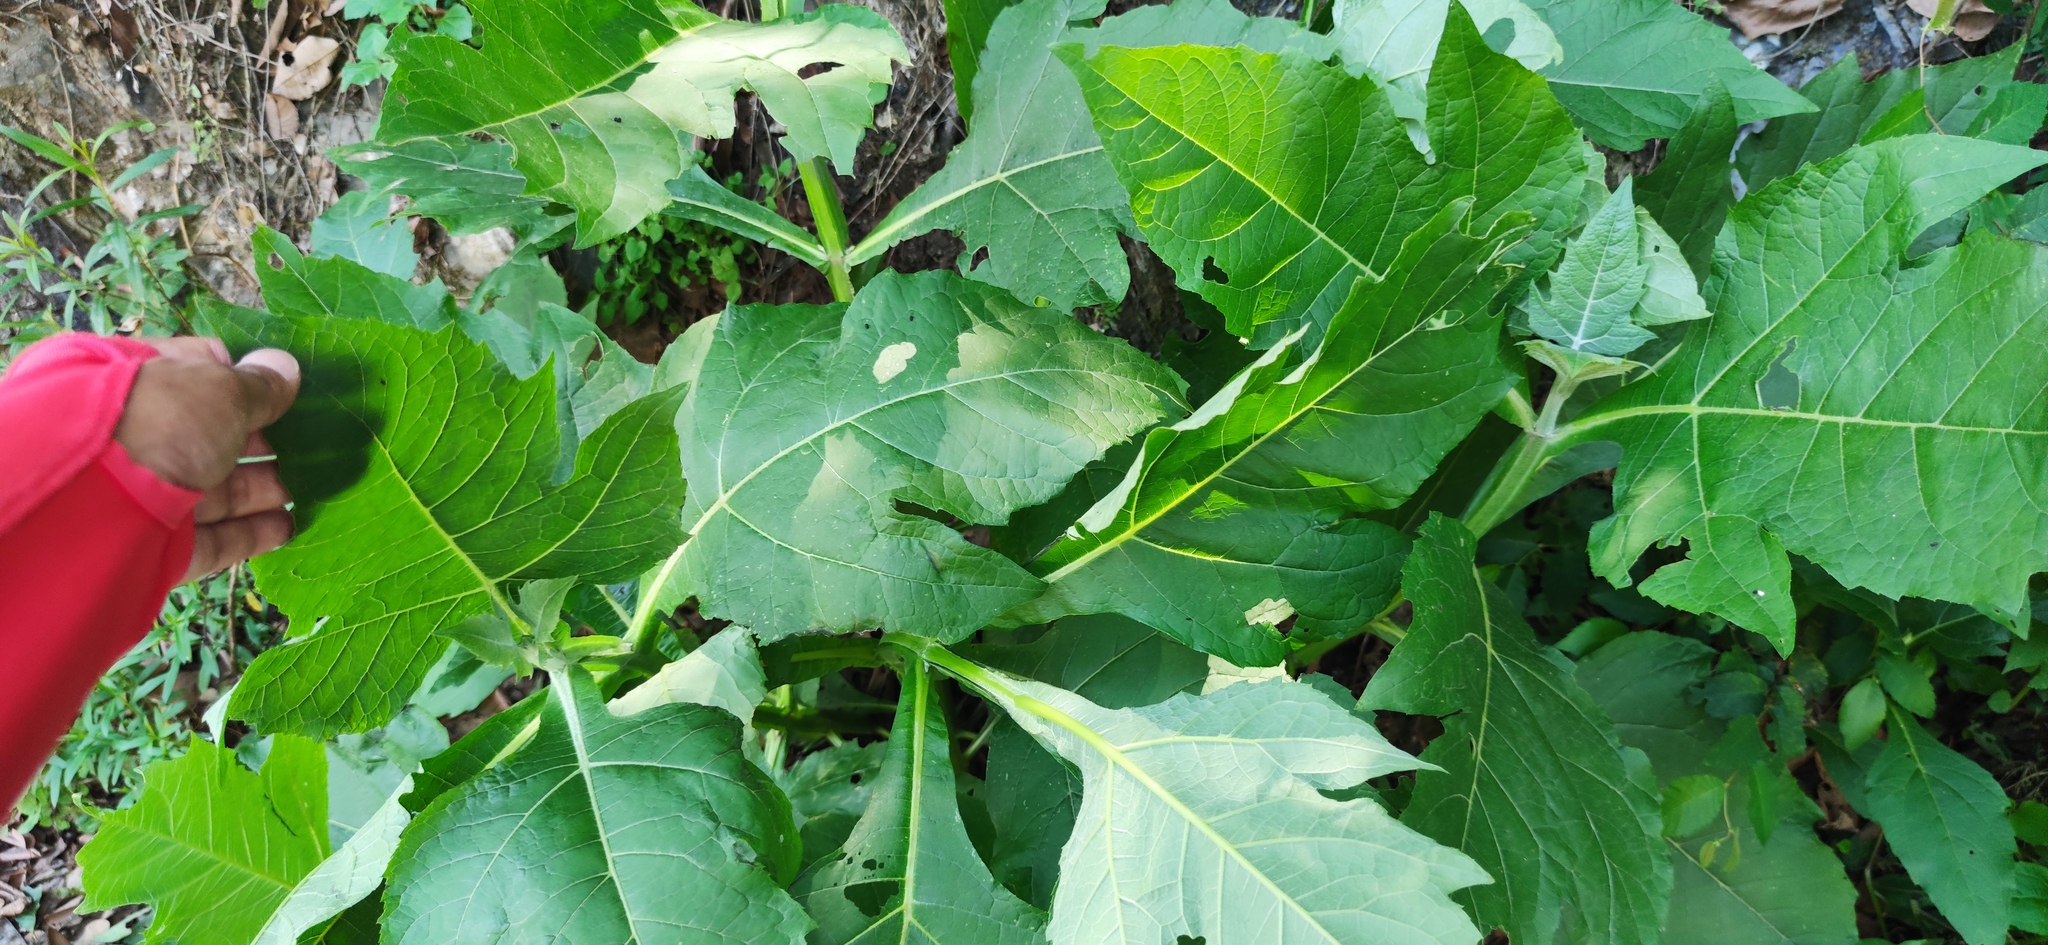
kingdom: Plantae
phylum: Tracheophyta
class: Magnoliopsida
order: Asterales
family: Asteraceae
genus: Verbesina
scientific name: Verbesina olsenii
